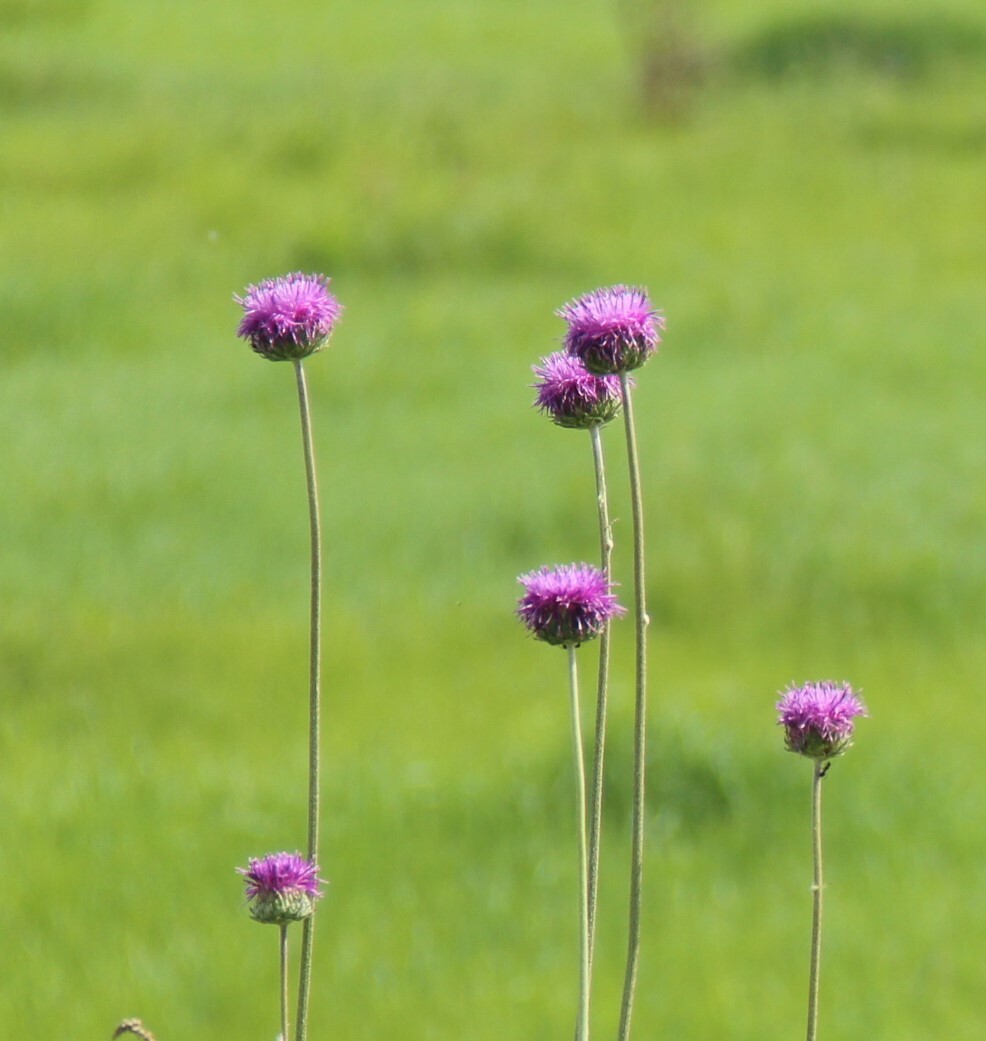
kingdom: Plantae
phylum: Tracheophyta
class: Magnoliopsida
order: Asterales
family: Asteraceae
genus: Jurinea
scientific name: Jurinea ledebourii
